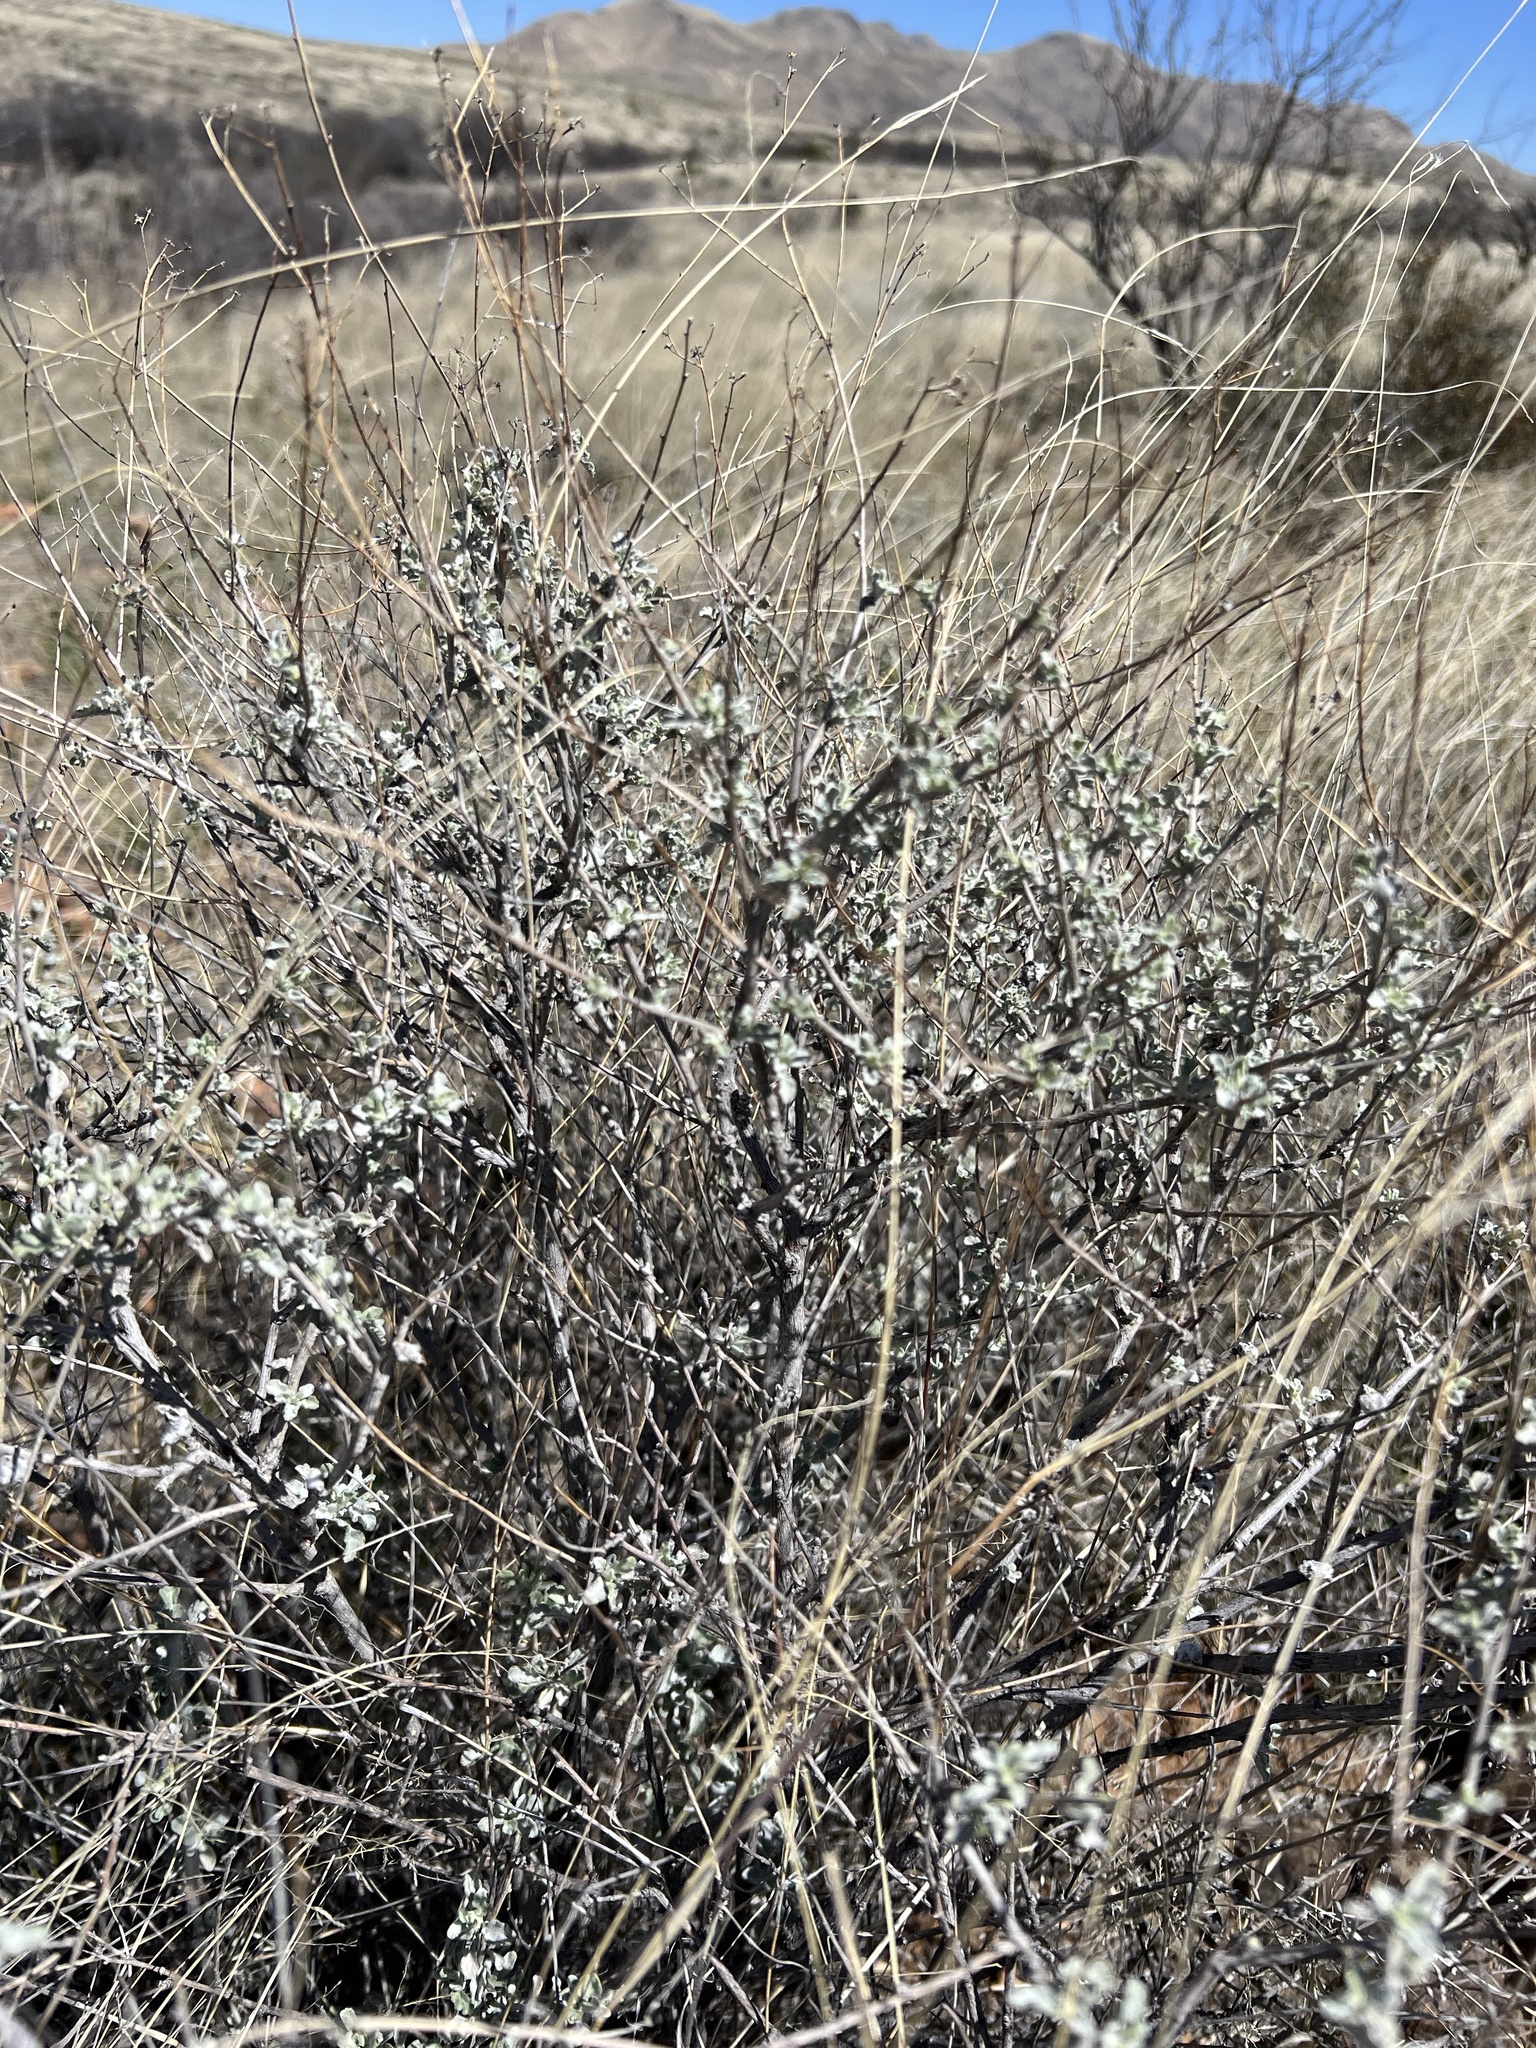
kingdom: Plantae
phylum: Tracheophyta
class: Magnoliopsida
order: Asterales
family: Asteraceae
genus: Parthenium
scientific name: Parthenium incanum
